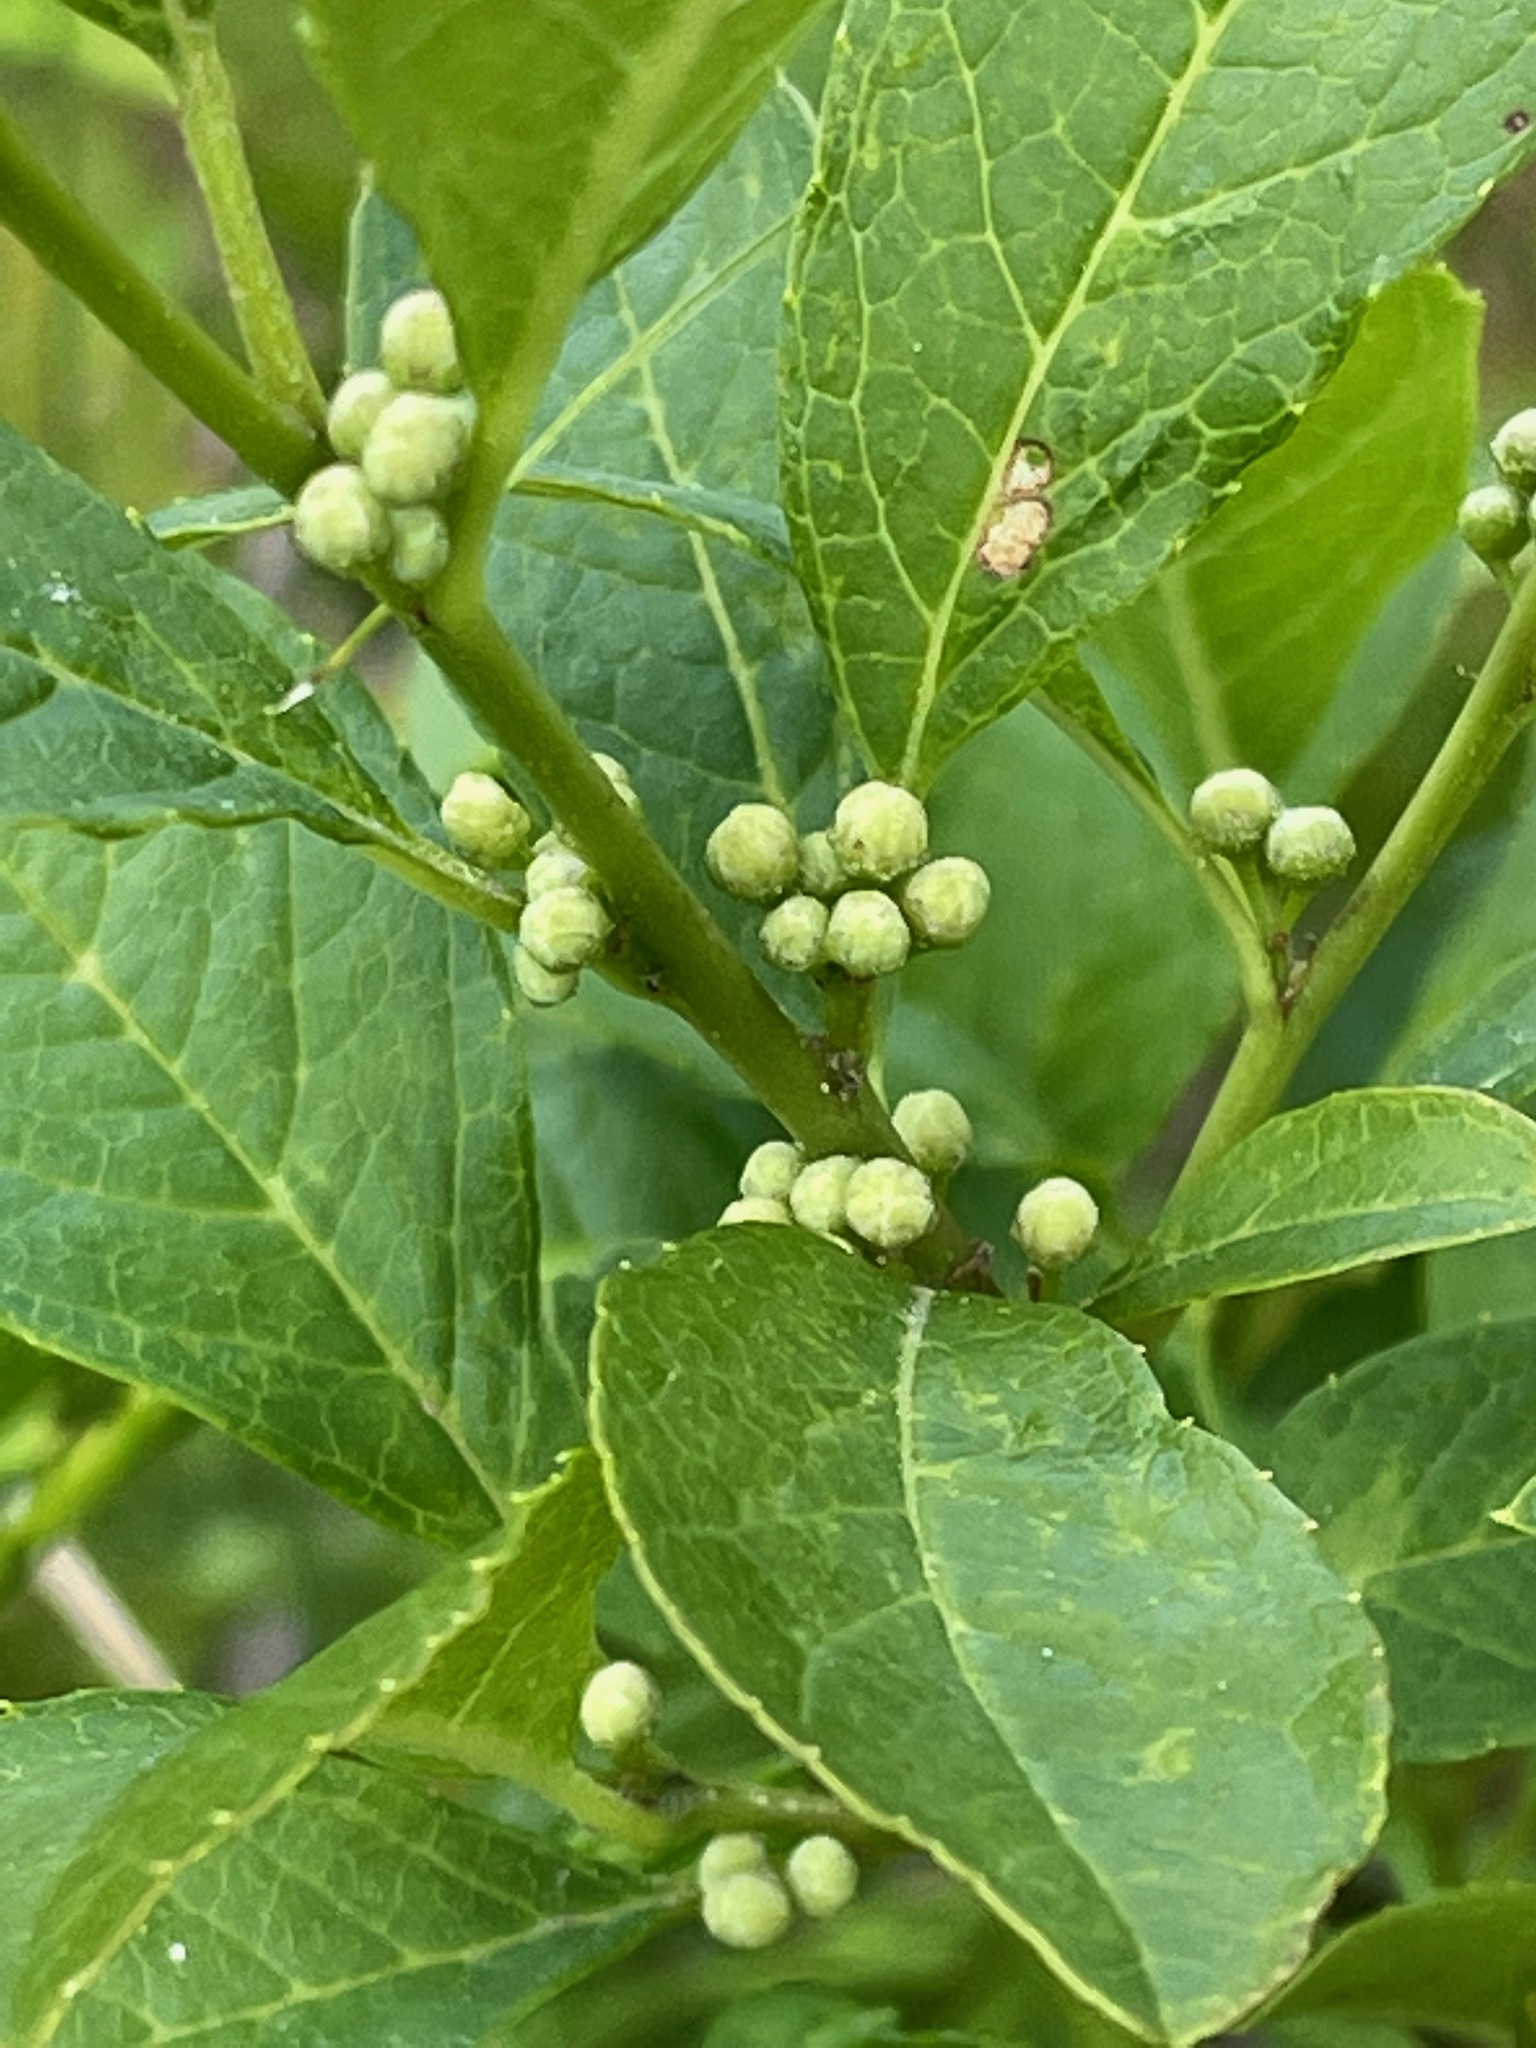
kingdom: Plantae
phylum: Tracheophyta
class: Magnoliopsida
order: Aquifoliales
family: Aquifoliaceae
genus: Ilex
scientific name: Ilex verticillata
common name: Virginia winterberry
